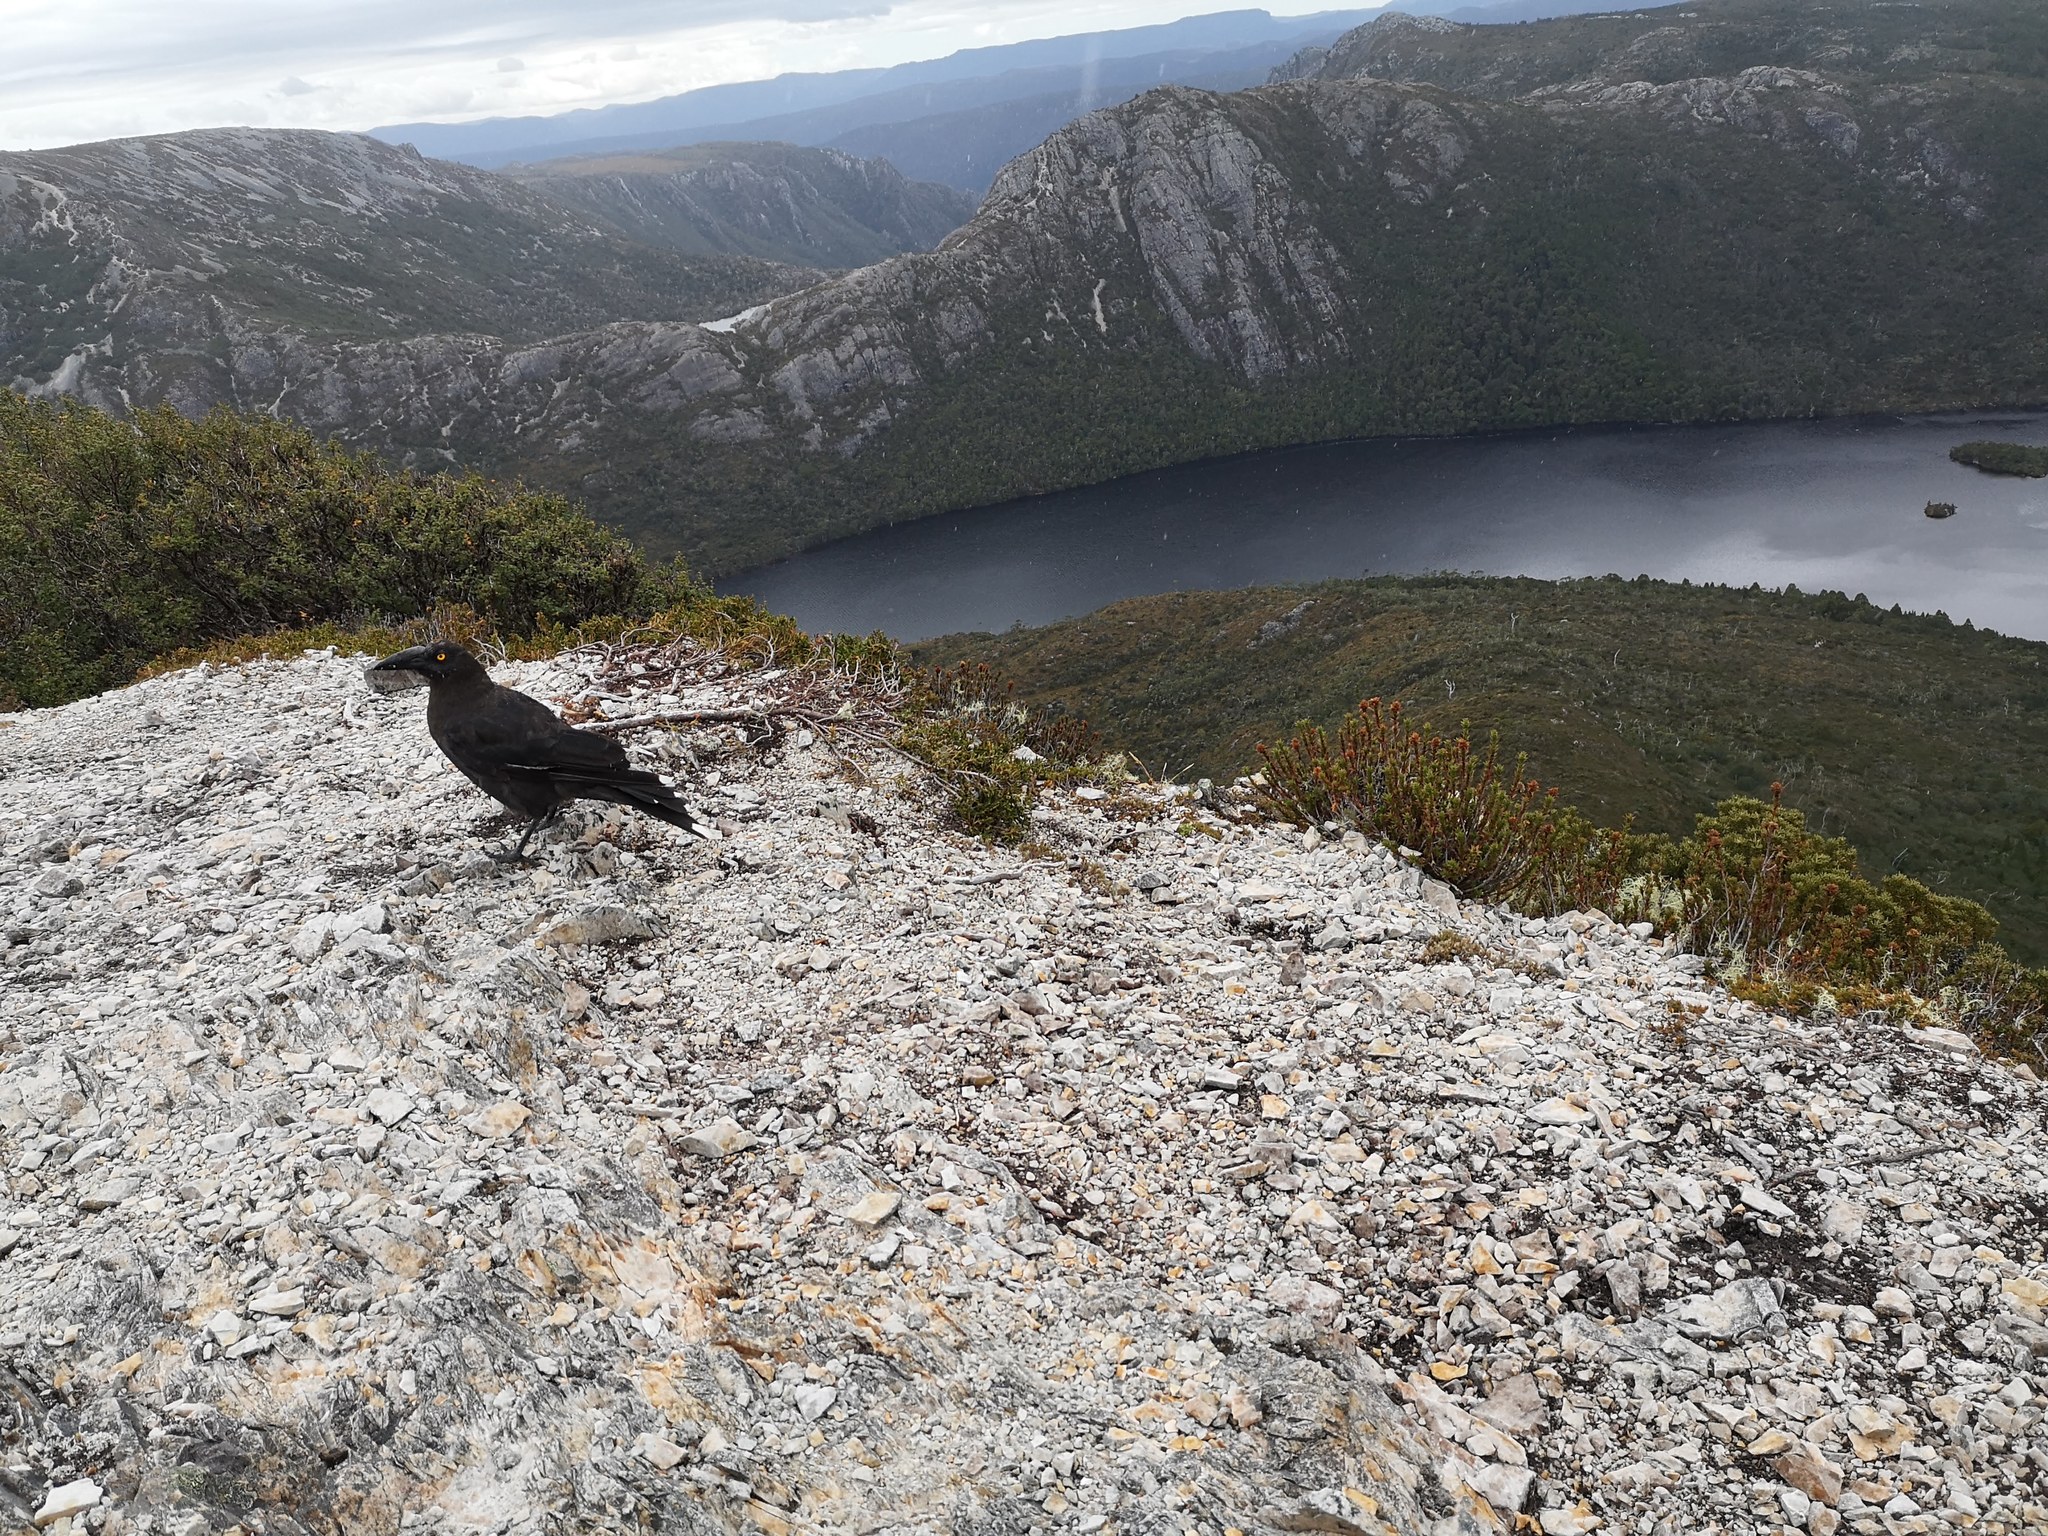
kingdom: Animalia
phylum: Chordata
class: Aves
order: Passeriformes
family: Cracticidae
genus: Strepera
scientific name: Strepera fuliginosa
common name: Black currawong
